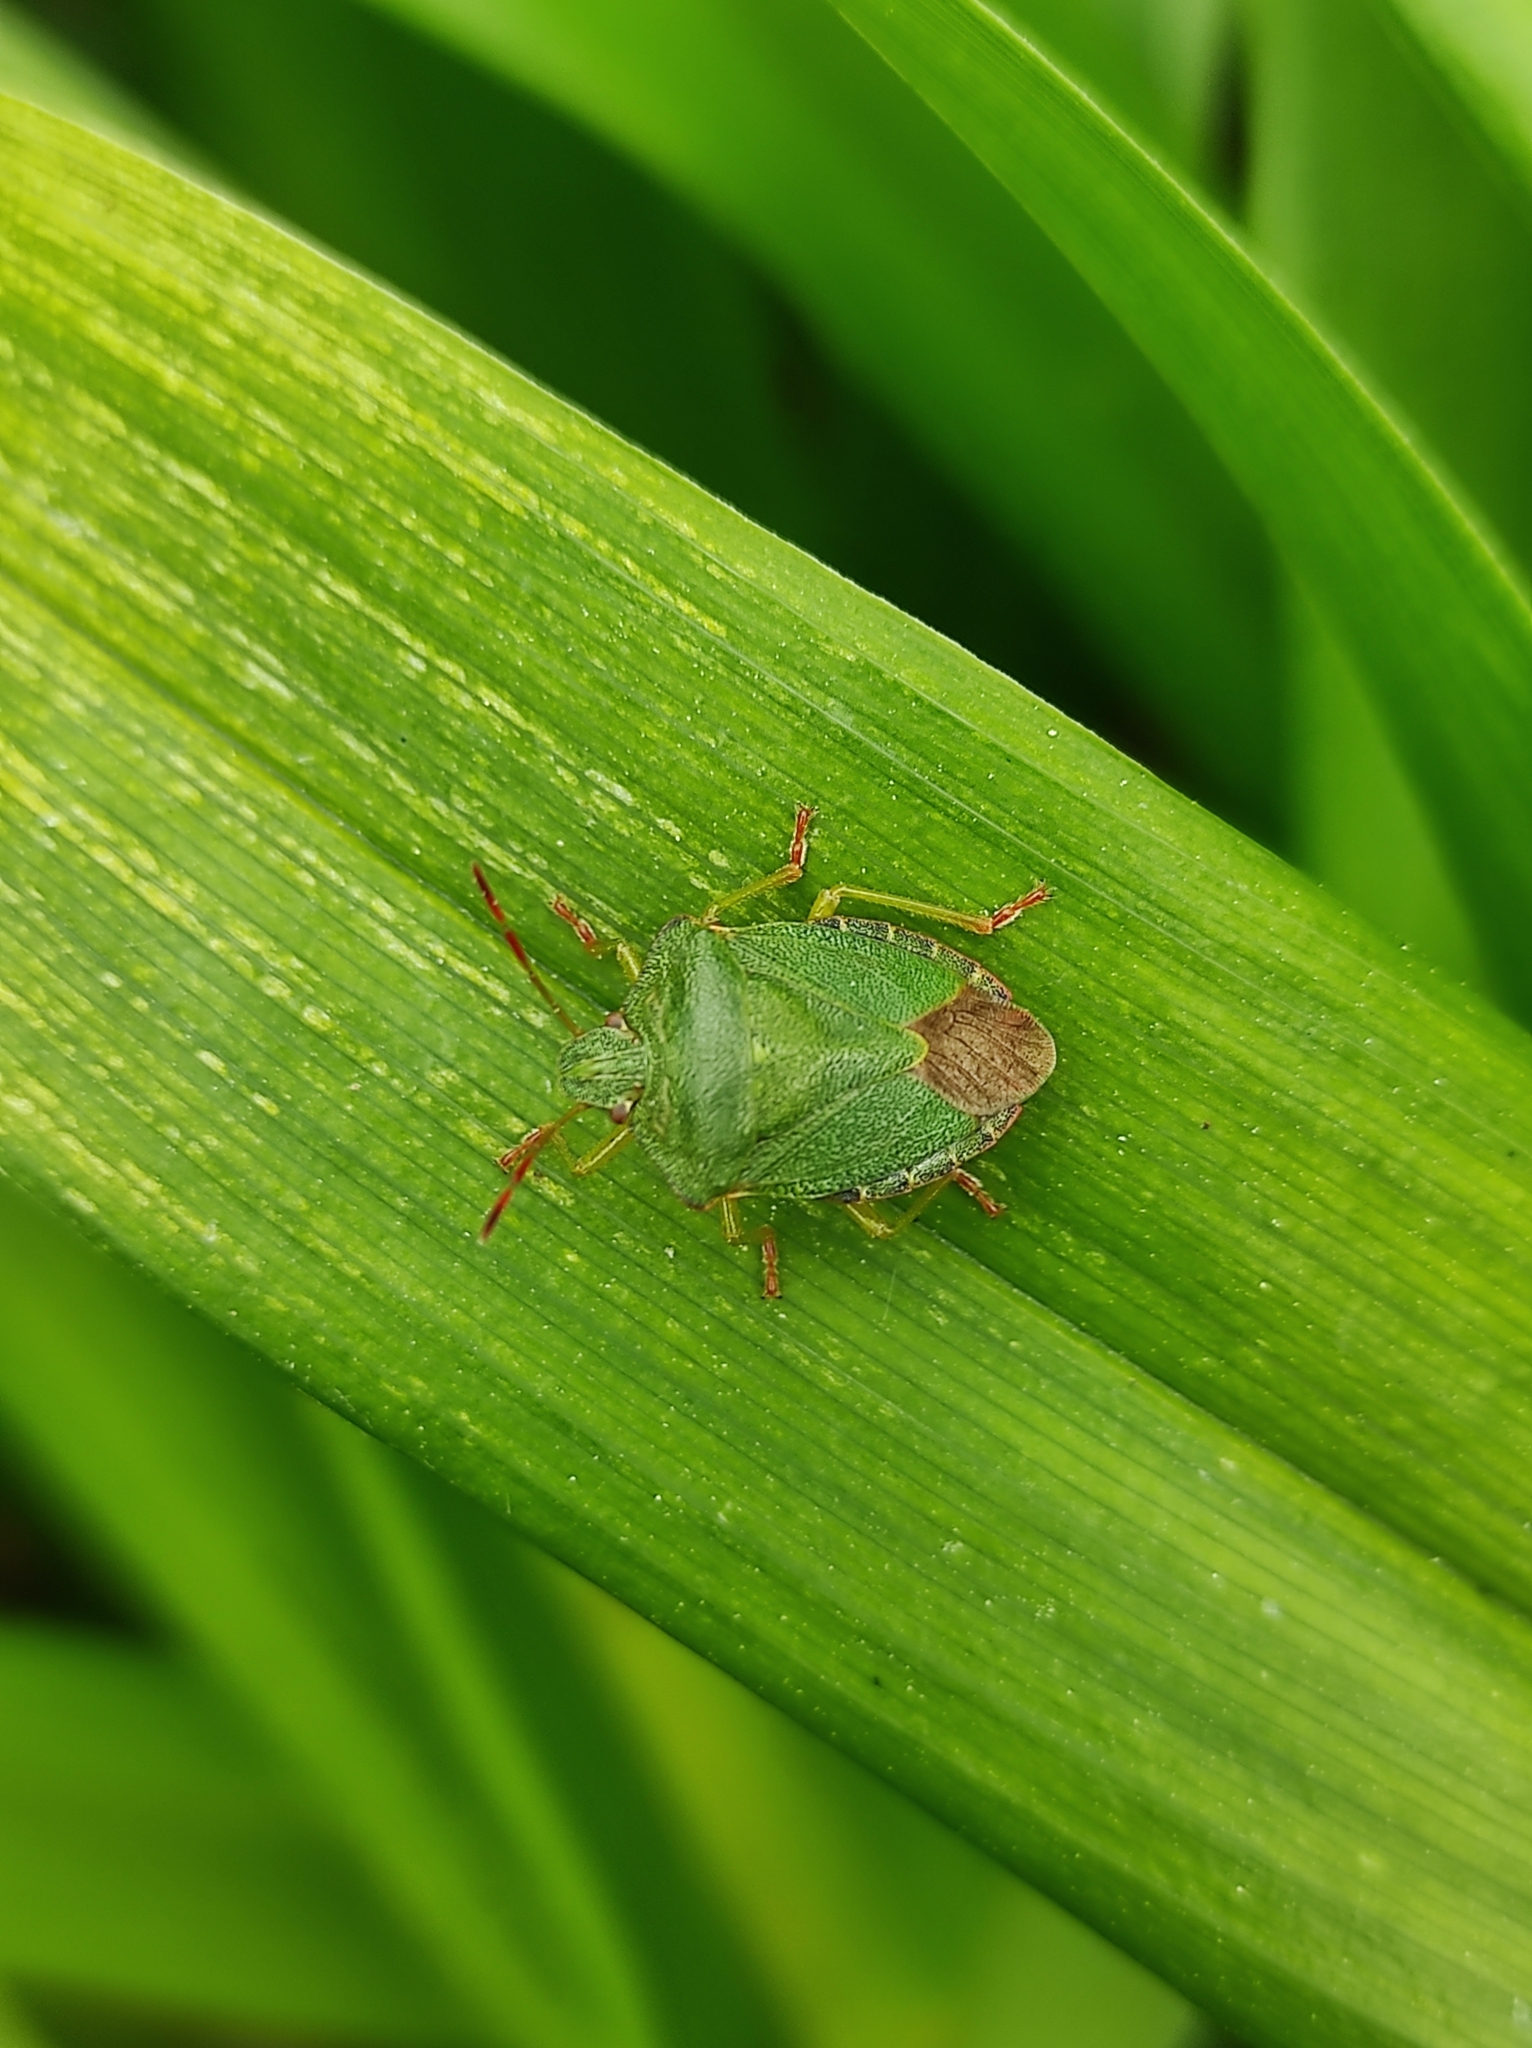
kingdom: Animalia
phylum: Arthropoda
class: Insecta
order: Hemiptera
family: Pentatomidae
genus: Palomena
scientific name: Palomena prasina
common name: Green shieldbug
